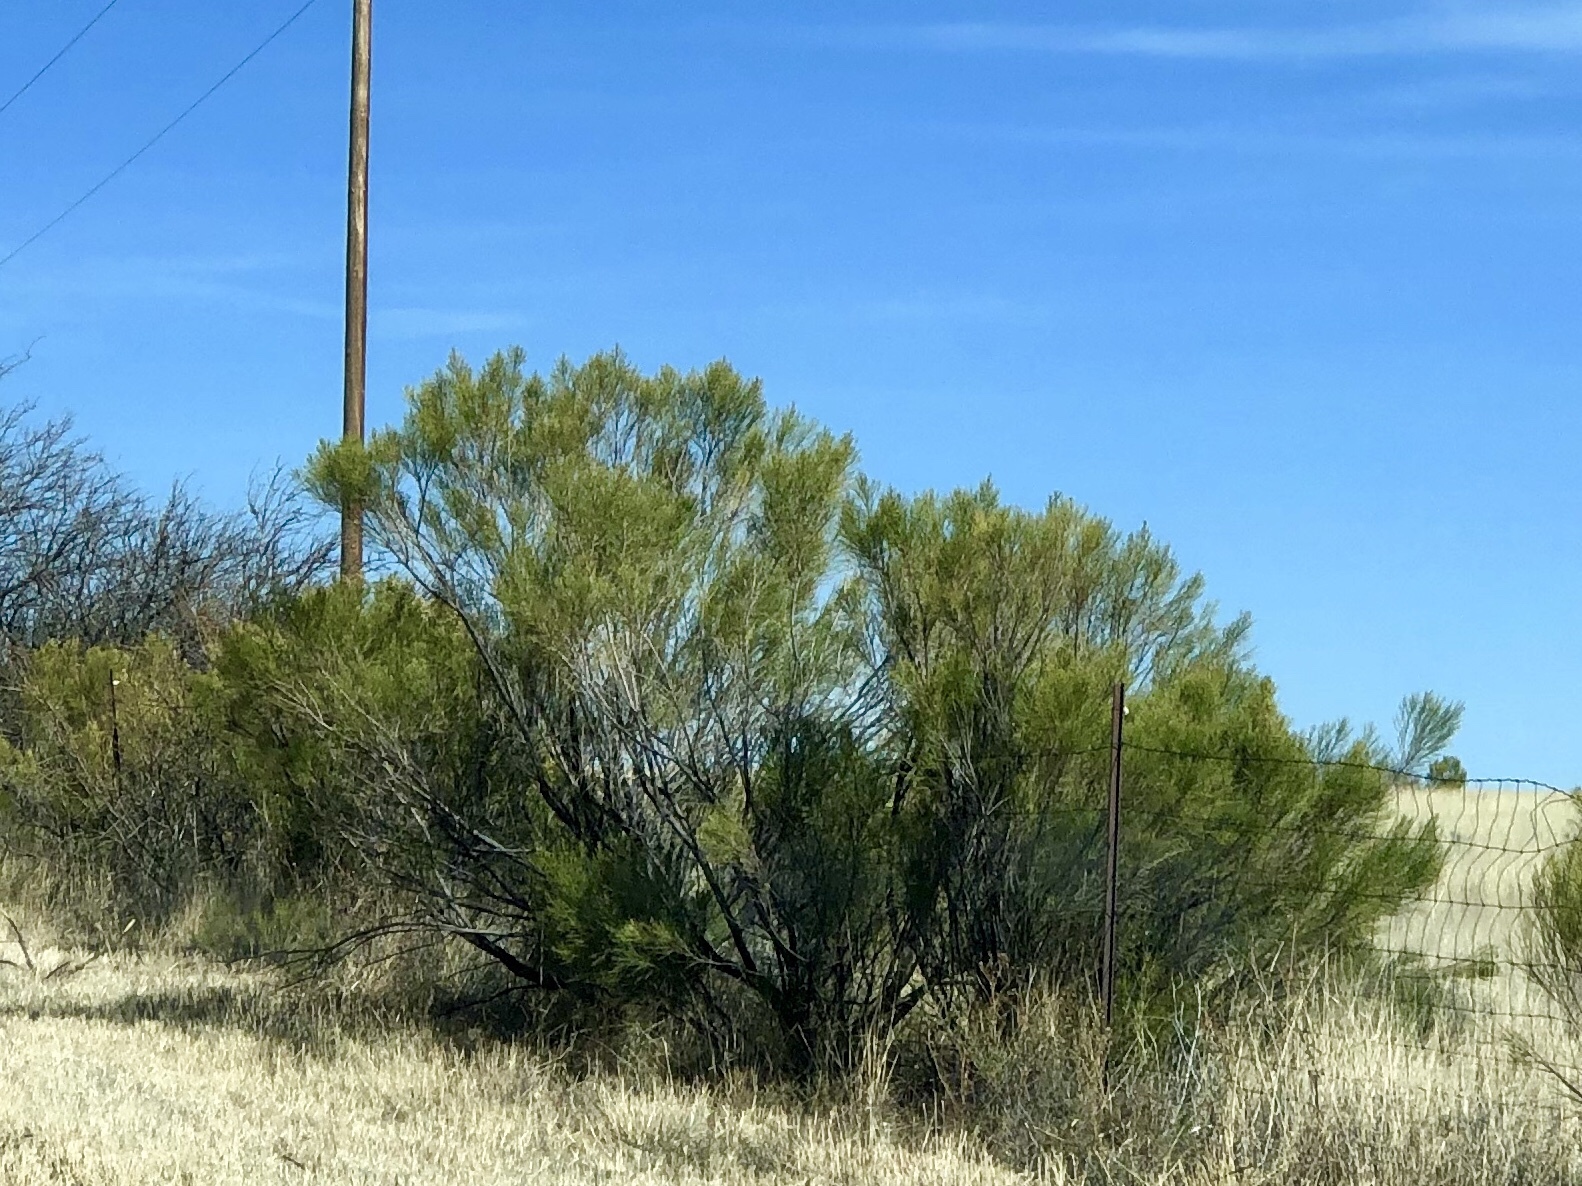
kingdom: Plantae
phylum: Tracheophyta
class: Magnoliopsida
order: Asterales
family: Asteraceae
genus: Baccharis
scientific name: Baccharis sarothroides
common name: Desert-broom
